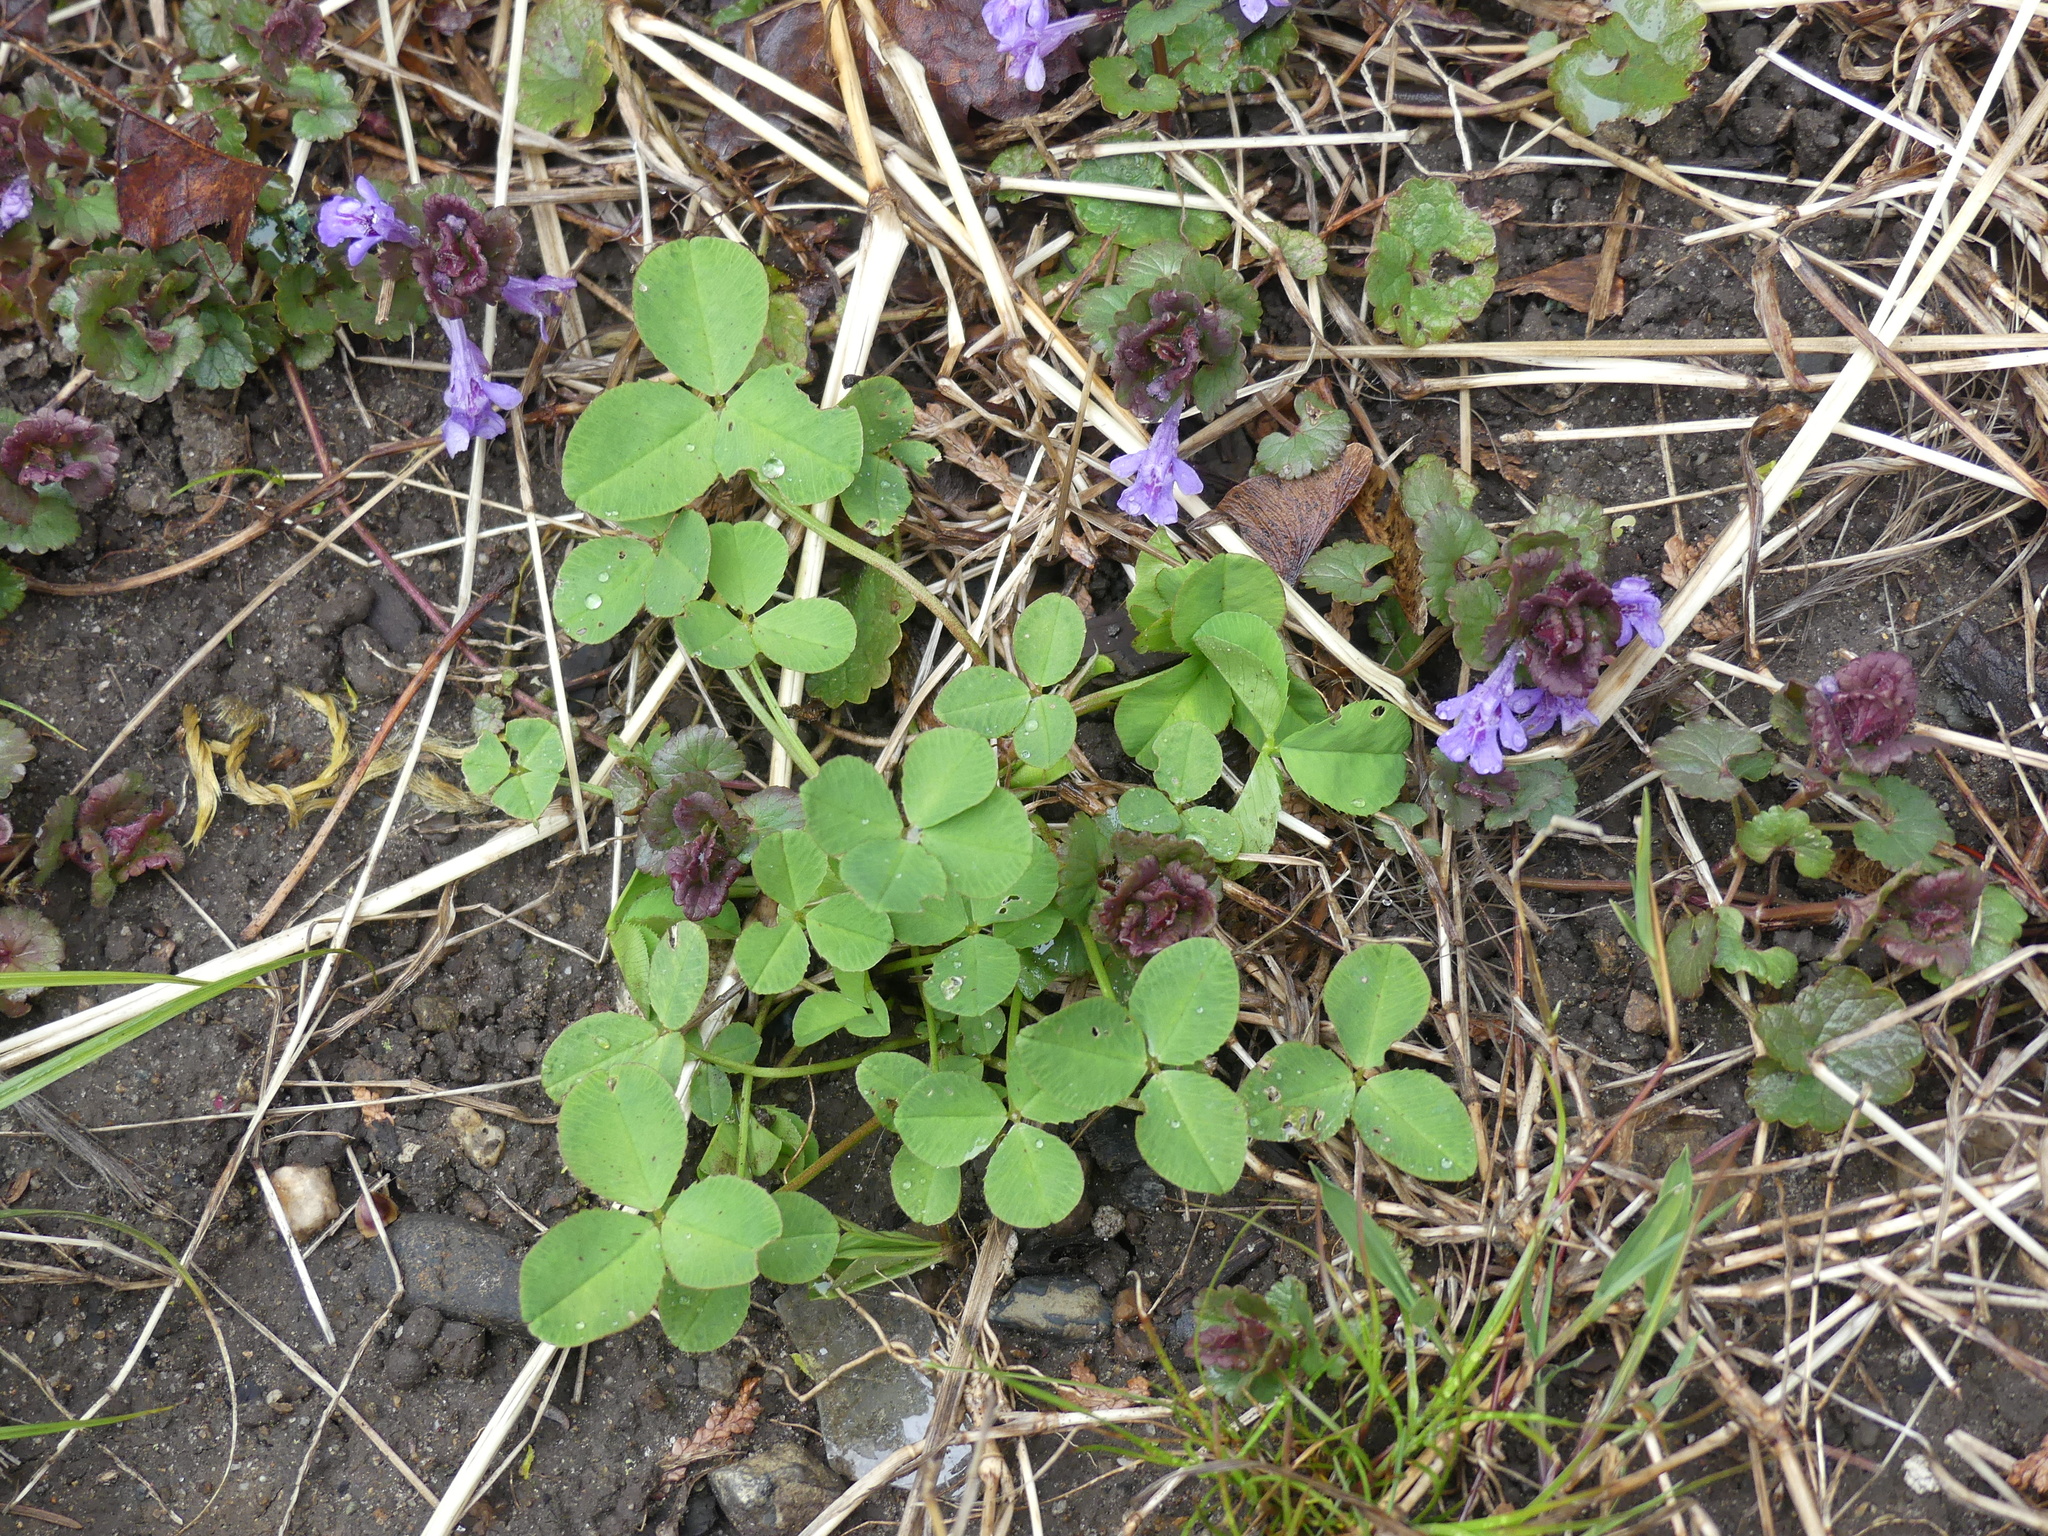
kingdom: Plantae
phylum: Tracheophyta
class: Magnoliopsida
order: Fabales
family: Fabaceae
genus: Trifolium
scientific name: Trifolium repens
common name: White clover
